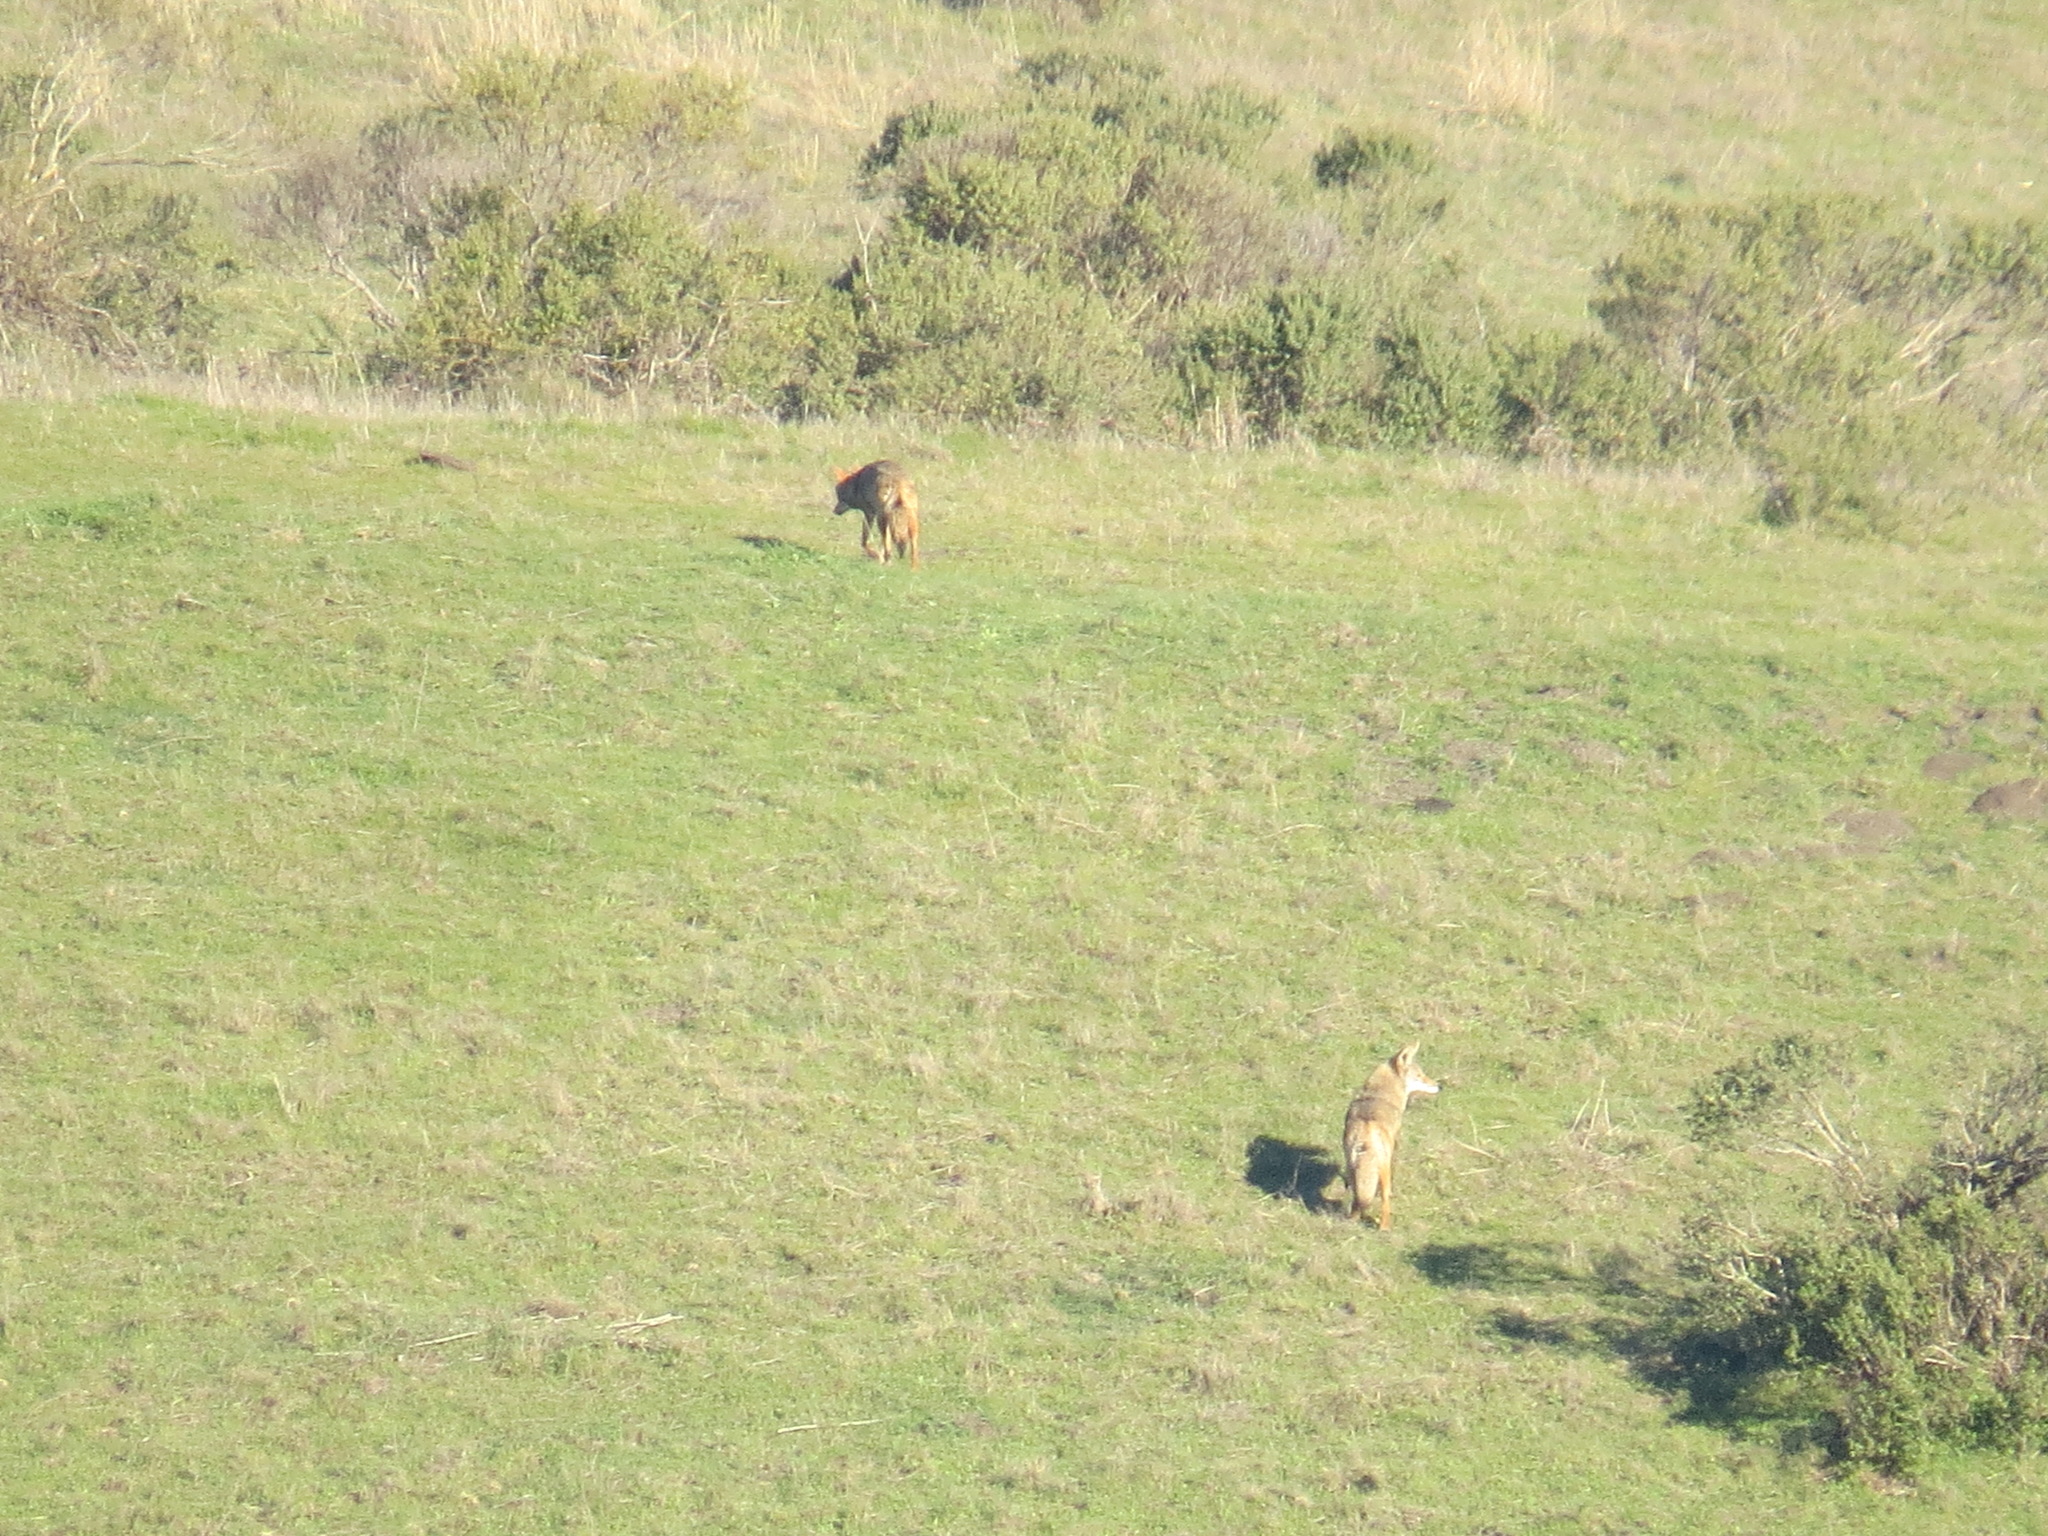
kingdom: Animalia
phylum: Chordata
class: Mammalia
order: Carnivora
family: Canidae
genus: Canis
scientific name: Canis latrans
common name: Coyote
